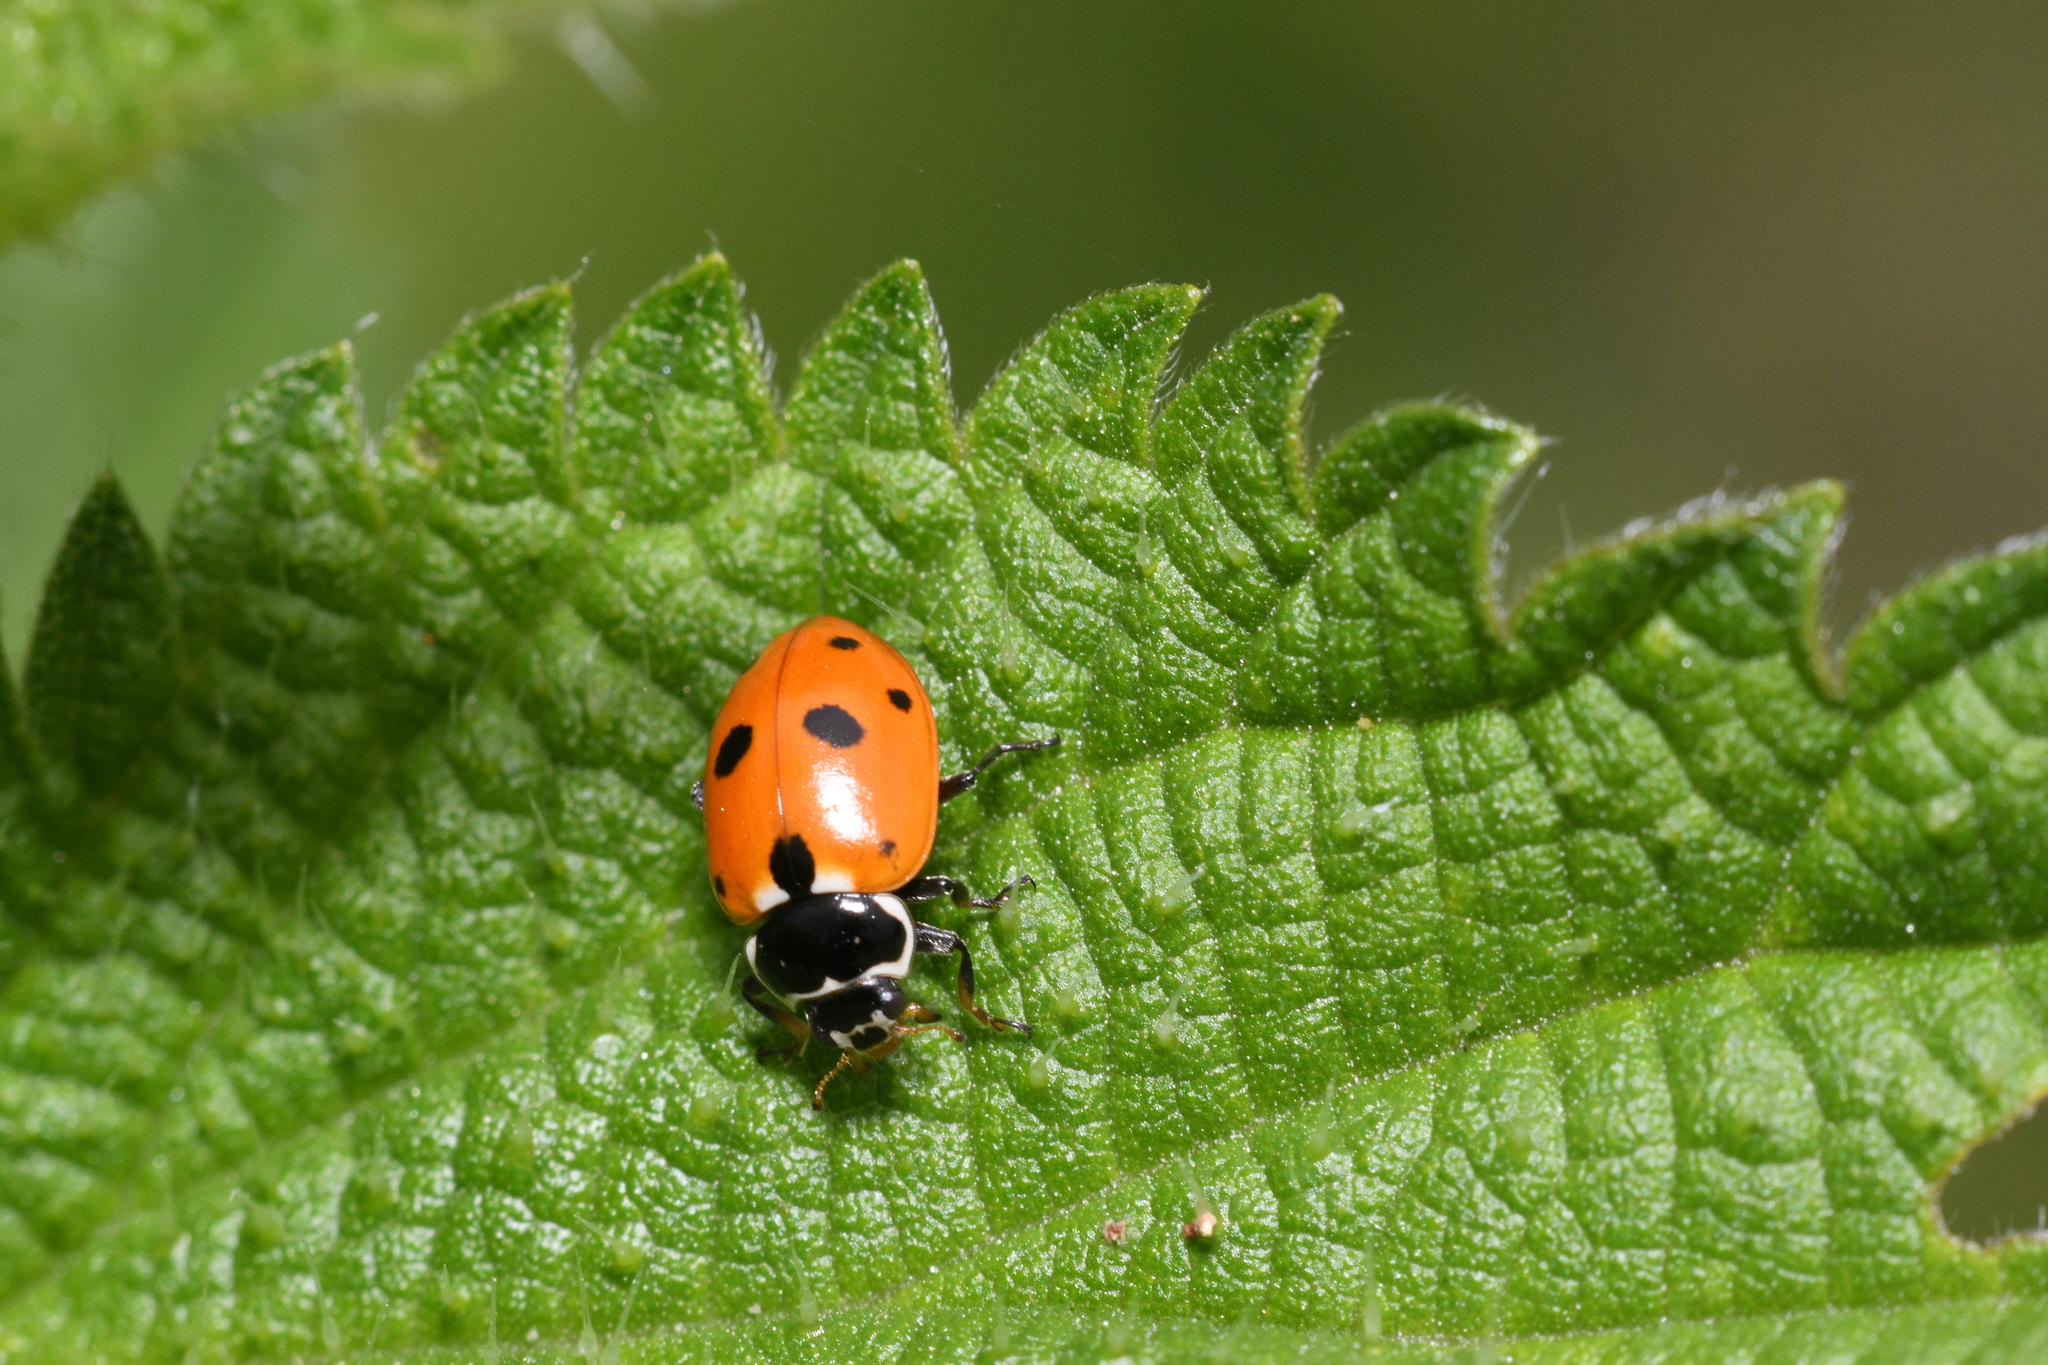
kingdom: Animalia
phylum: Arthropoda
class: Insecta
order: Coleoptera
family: Coccinellidae
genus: Hippodamia
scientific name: Hippodamia variegata
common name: Ladybird beetle
